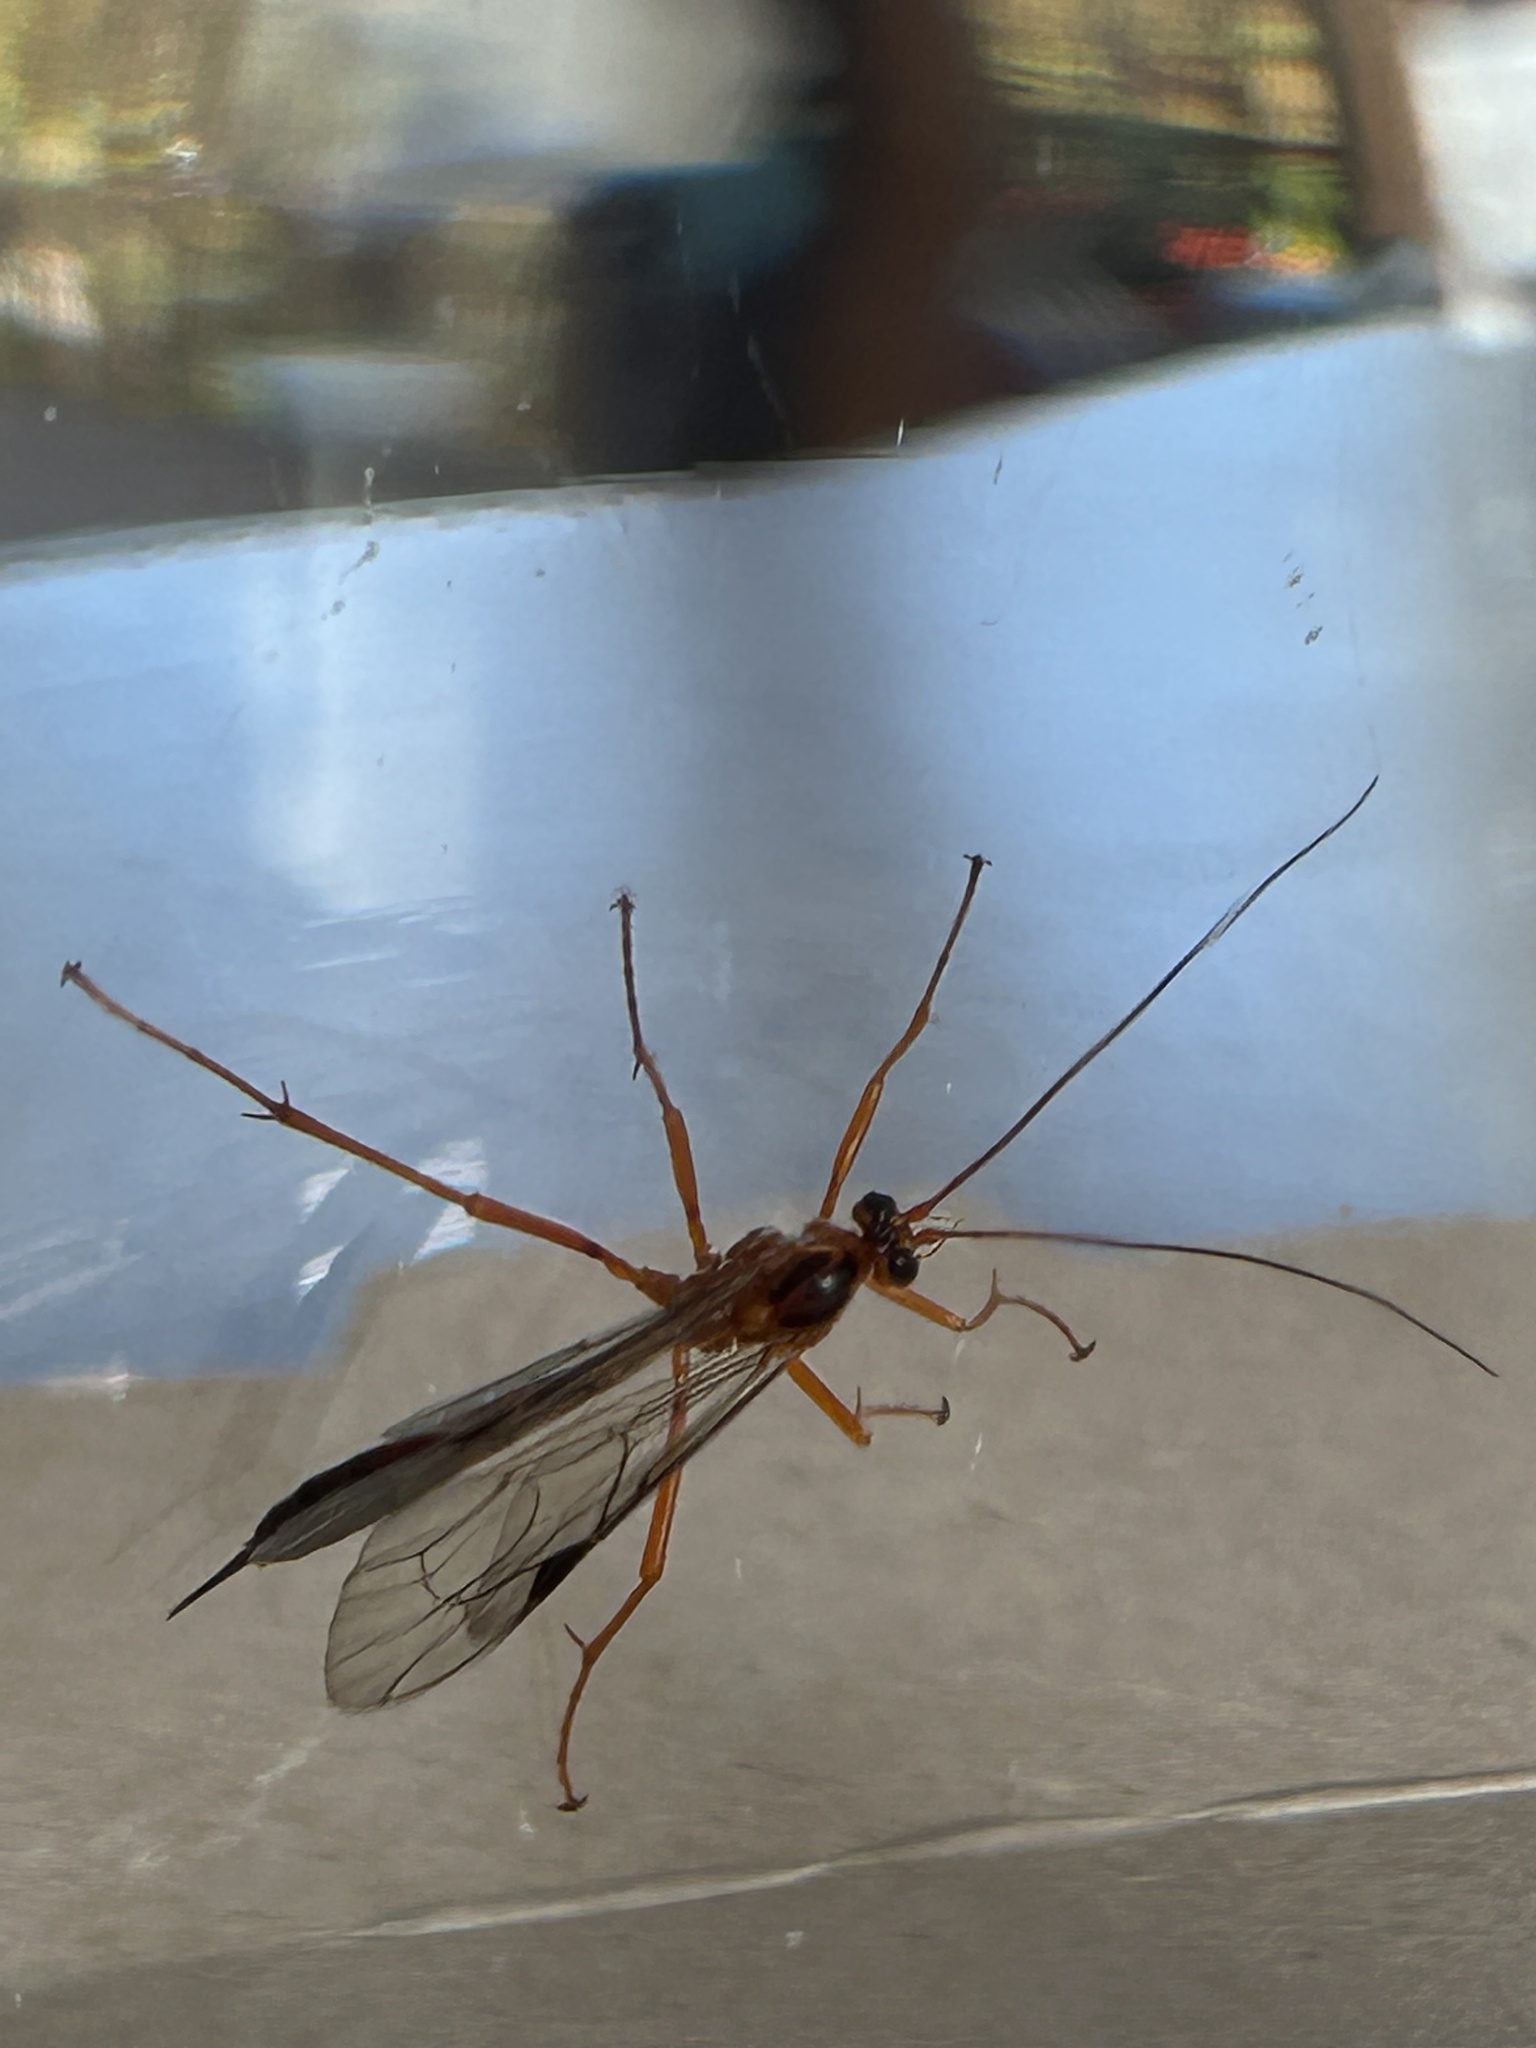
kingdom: Animalia
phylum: Arthropoda
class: Insecta
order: Hymenoptera
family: Ichneumonidae
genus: Netelia
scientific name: Netelia ephippiata
